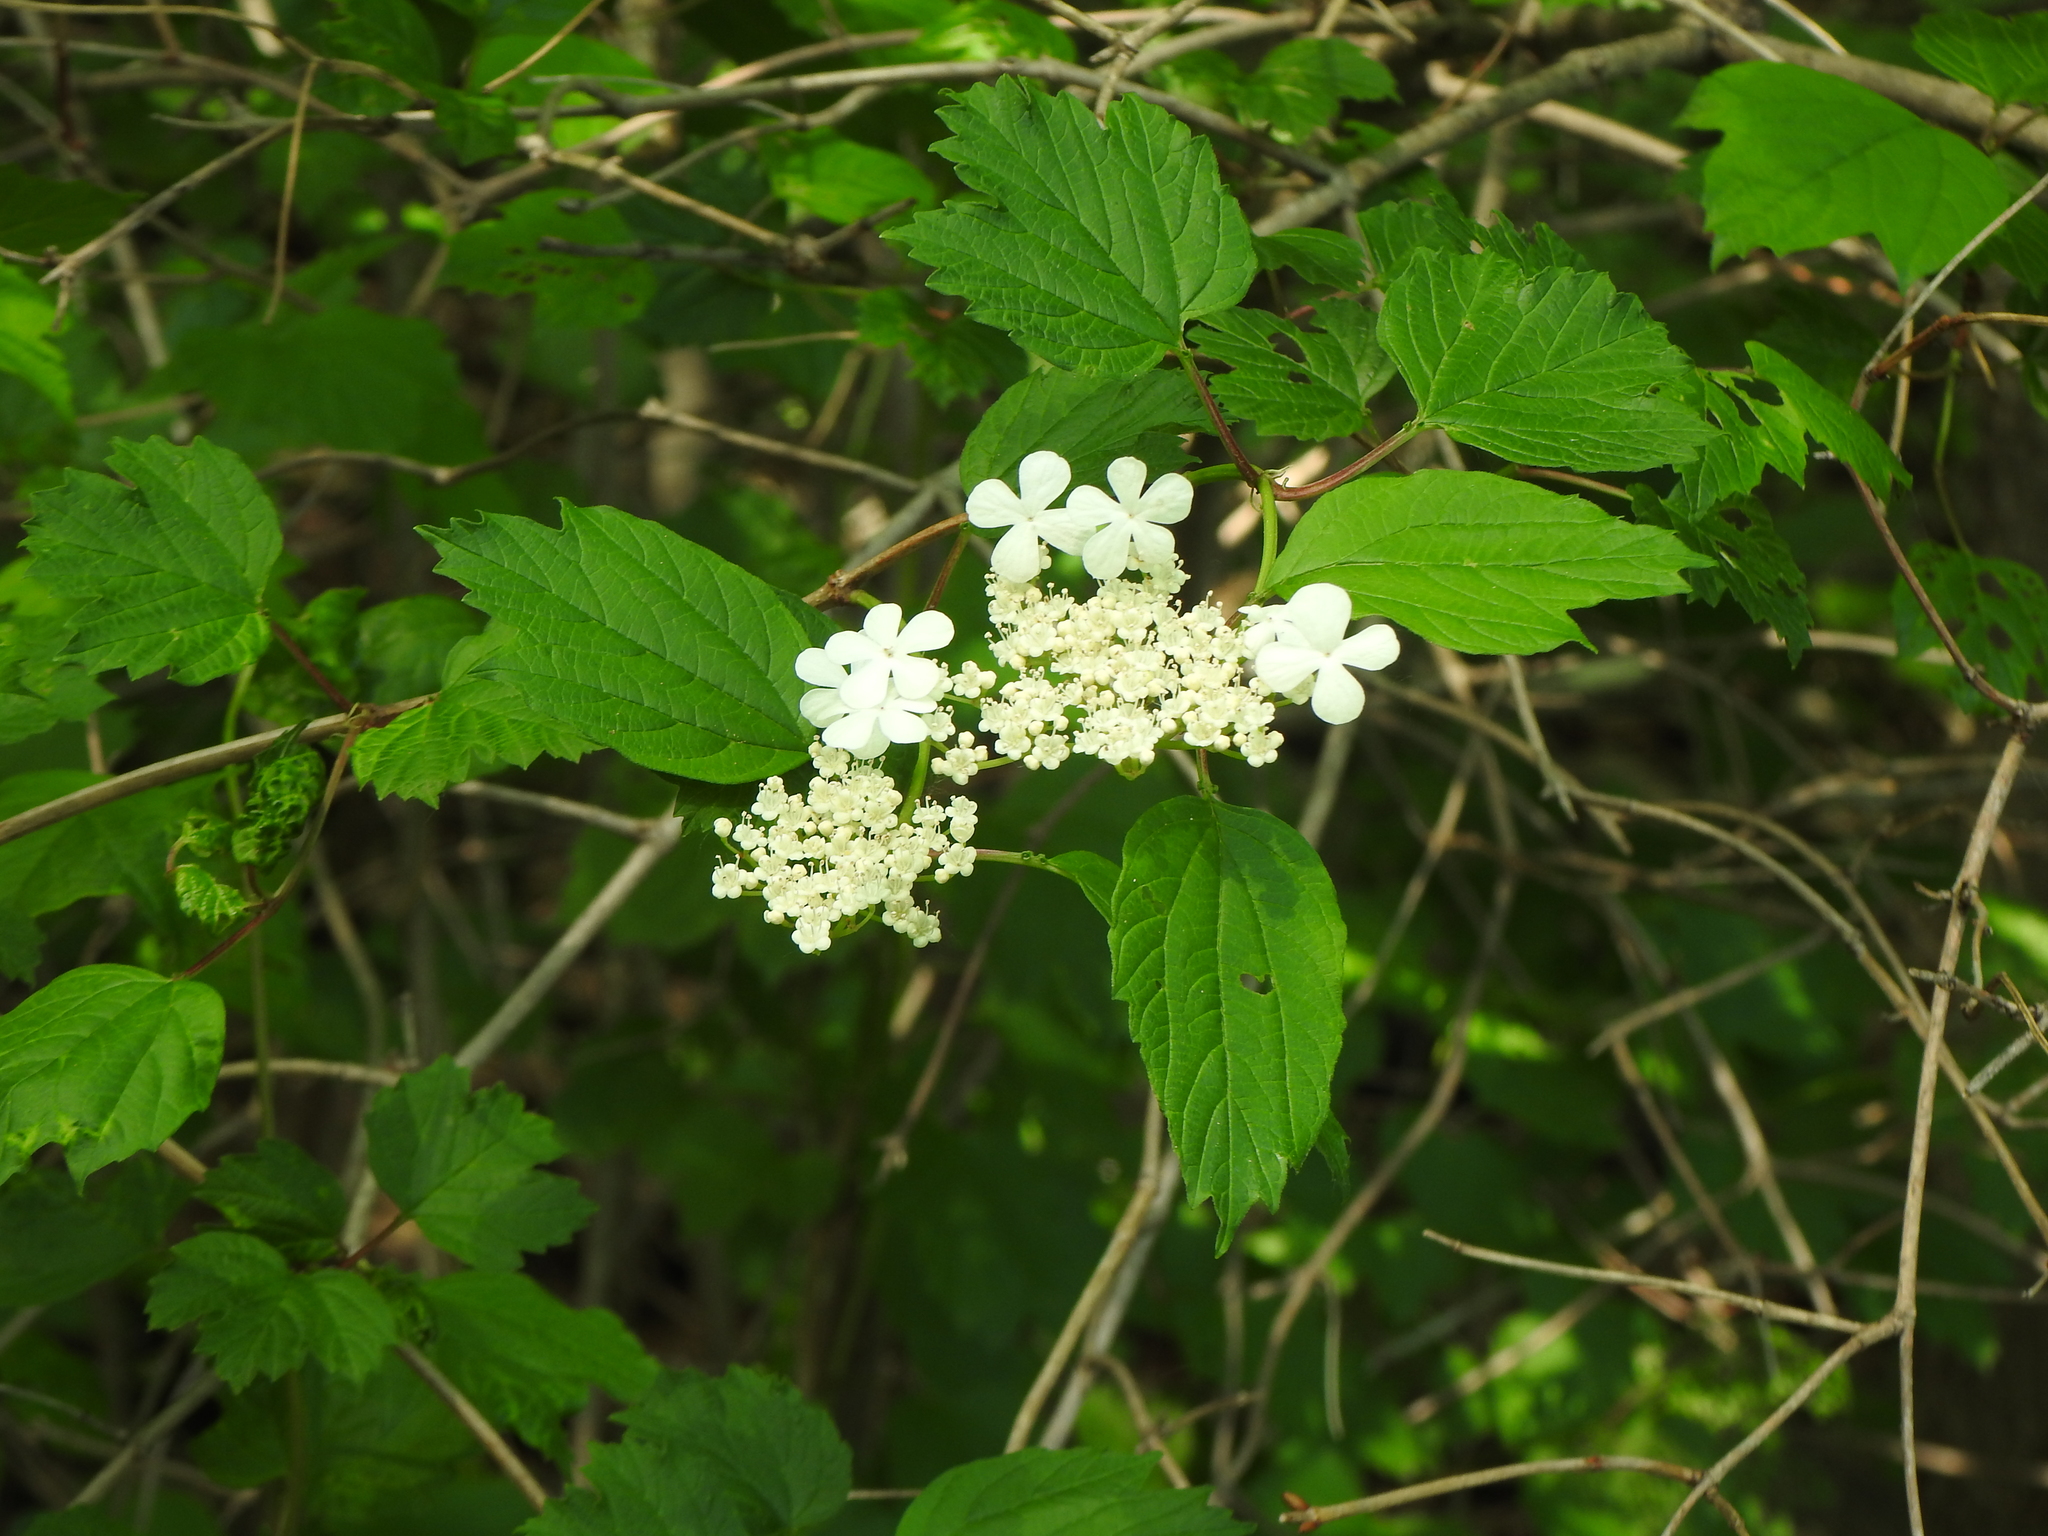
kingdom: Plantae
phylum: Tracheophyta
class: Magnoliopsida
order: Dipsacales
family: Viburnaceae
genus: Viburnum
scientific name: Viburnum opulus
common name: Guelder-rose
